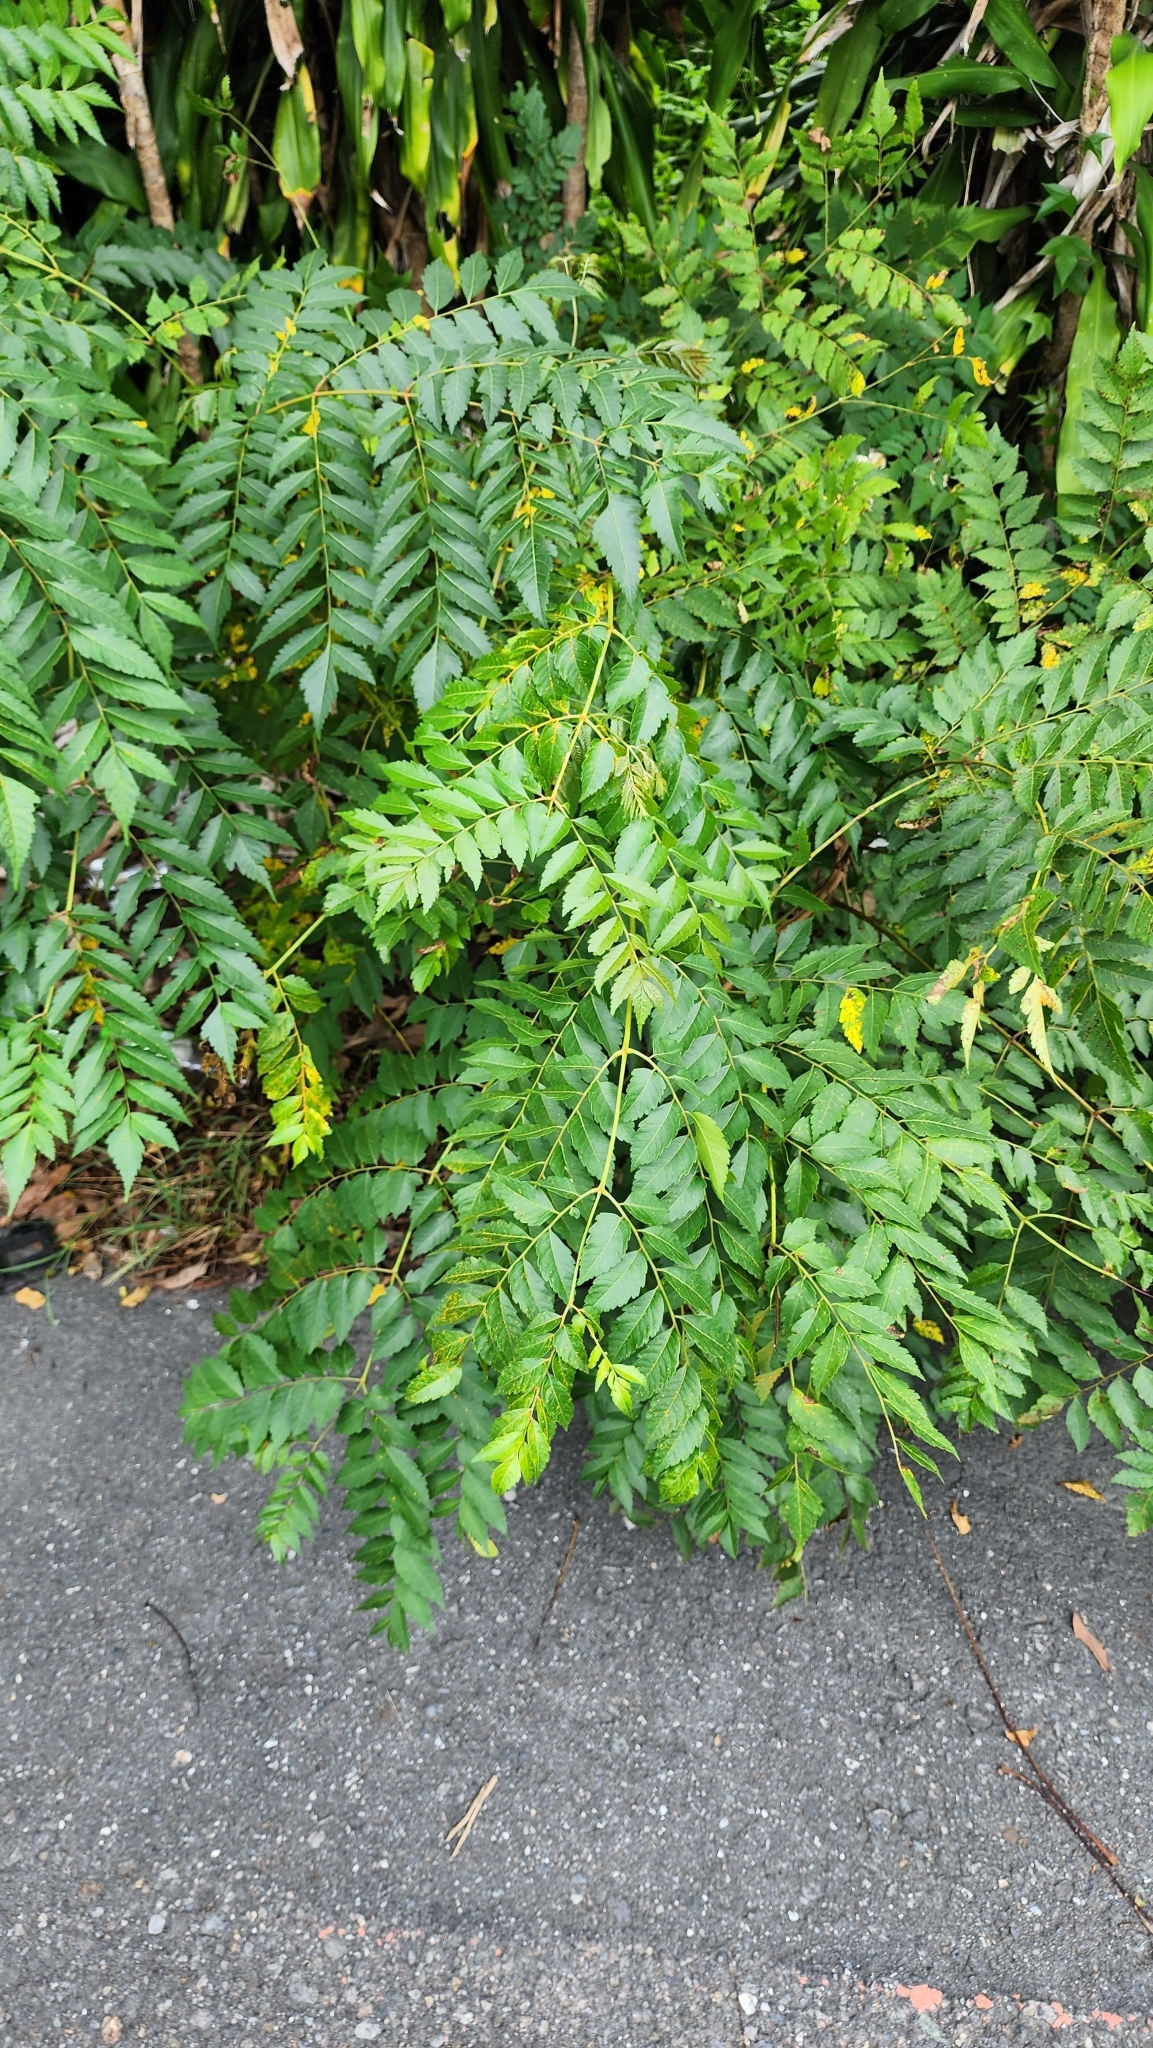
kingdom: Plantae
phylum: Tracheophyta
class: Magnoliopsida
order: Sapindales
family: Sapindaceae
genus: Koelreuteria
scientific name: Koelreuteria elegans
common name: Chinese flame tree
